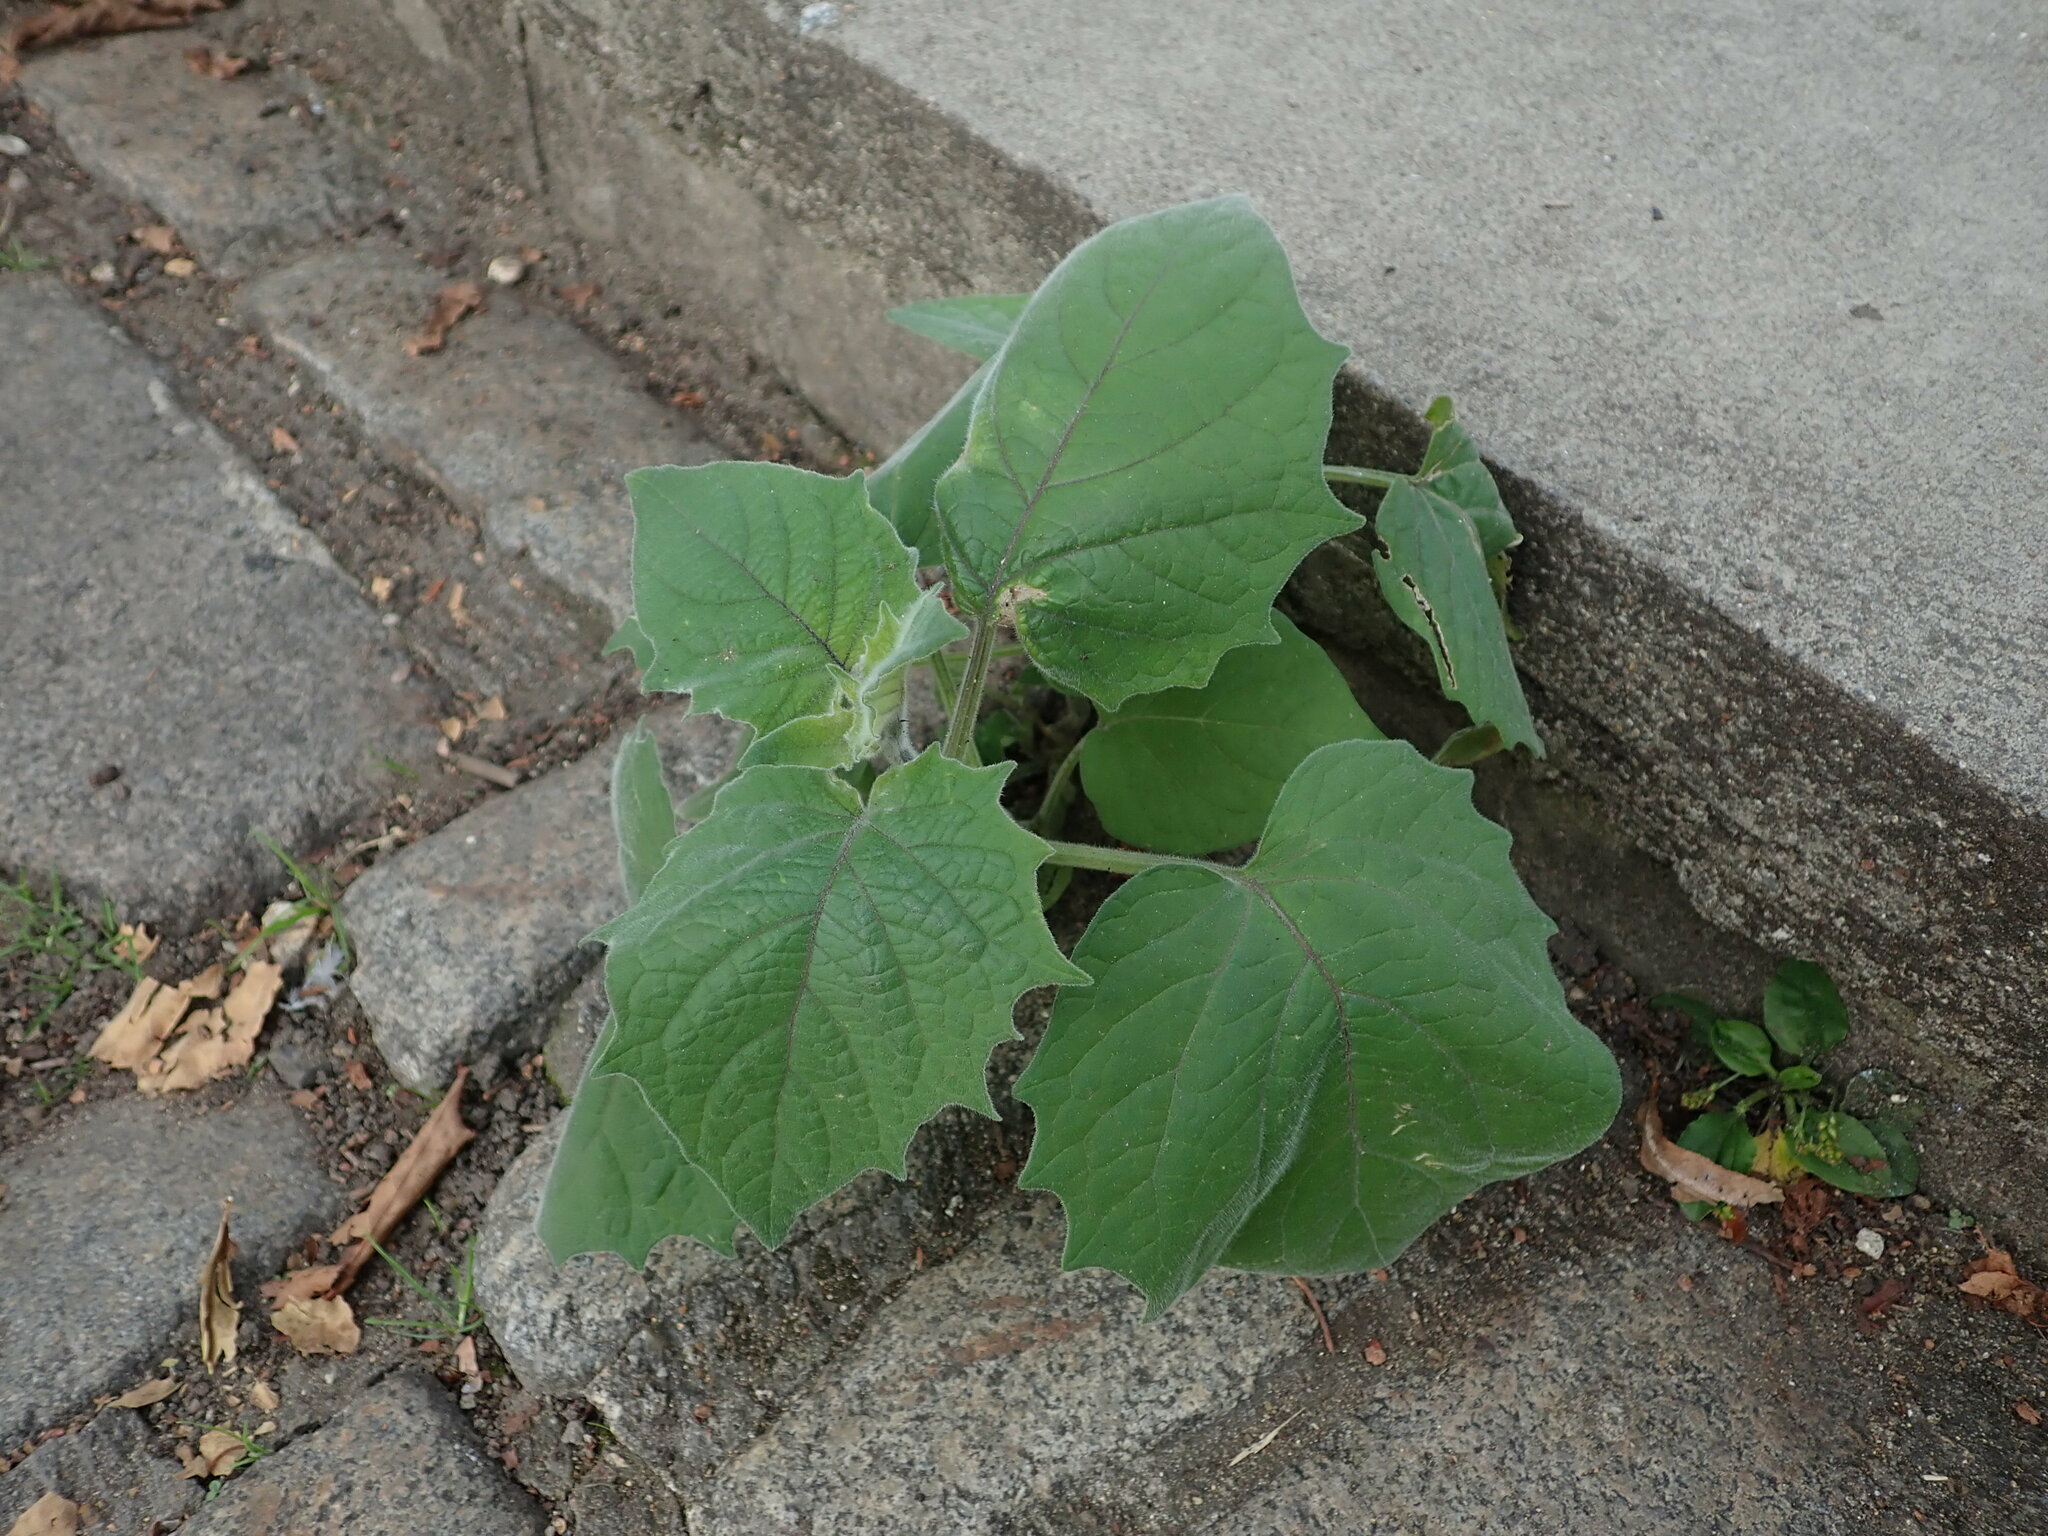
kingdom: Plantae
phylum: Tracheophyta
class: Magnoliopsida
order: Solanales
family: Solanaceae
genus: Physalis
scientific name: Physalis peruviana
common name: Cape-gooseberry
